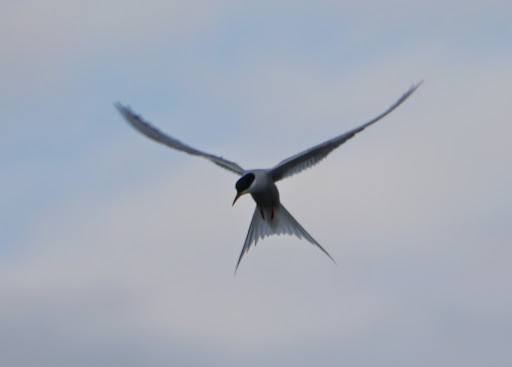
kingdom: Animalia
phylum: Chordata
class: Aves
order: Charadriiformes
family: Laridae
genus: Sterna
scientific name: Sterna paradisaea
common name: Arctic tern
